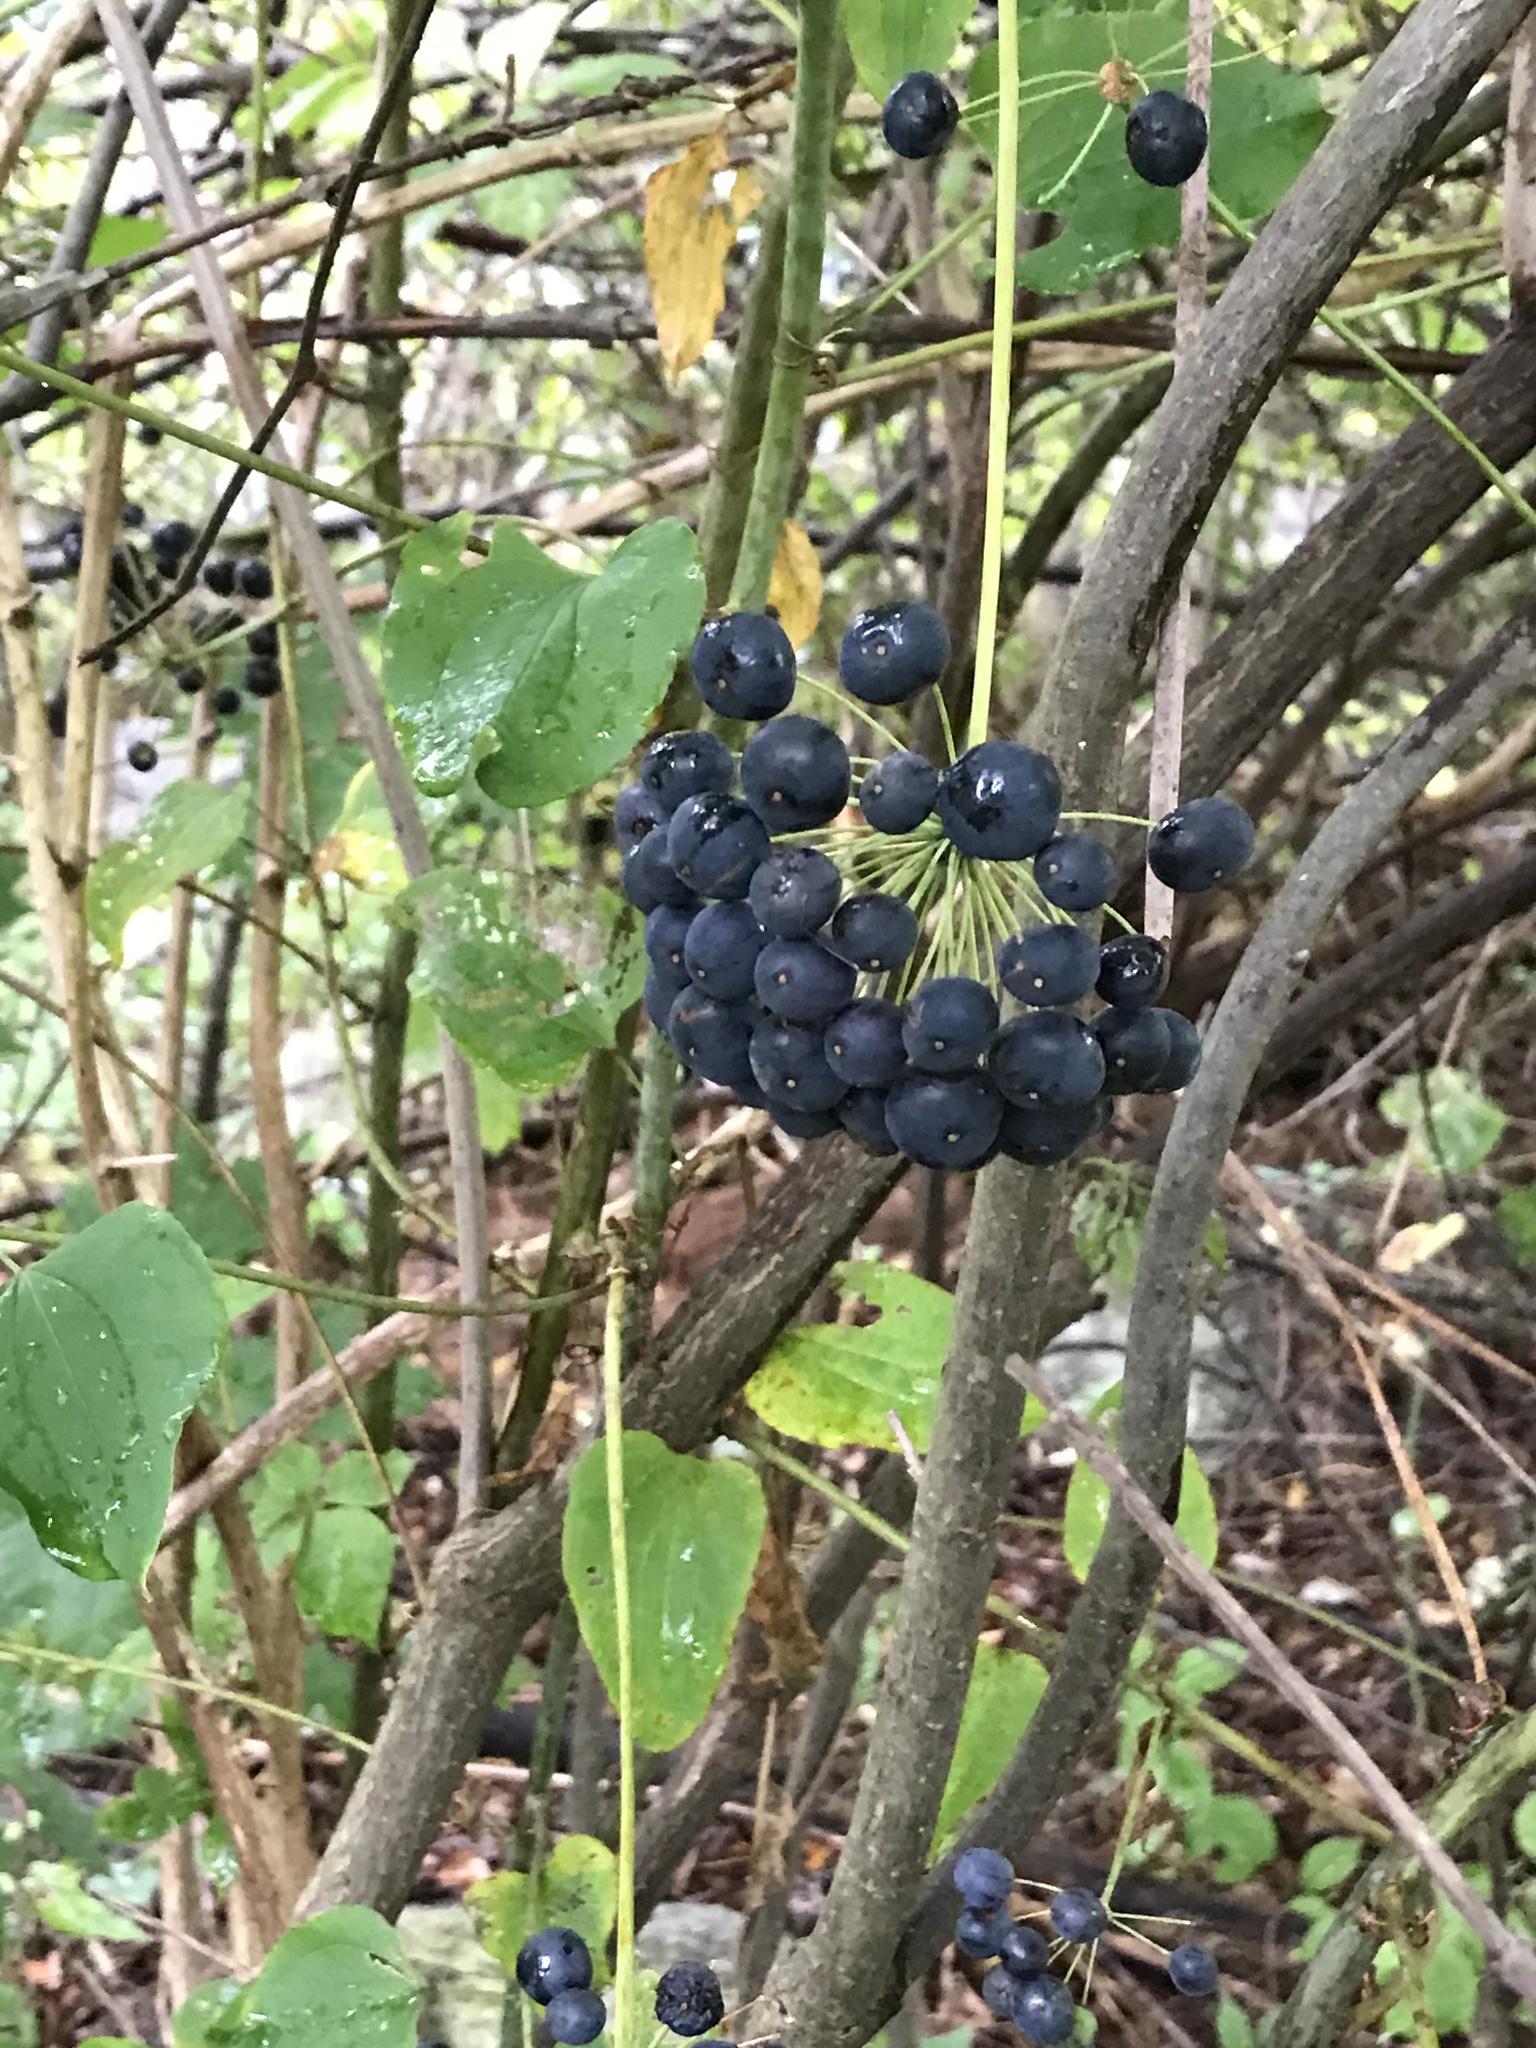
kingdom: Plantae
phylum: Tracheophyta
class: Liliopsida
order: Liliales
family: Smilacaceae
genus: Smilax
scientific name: Smilax herbacea
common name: Jacob's-ladder
